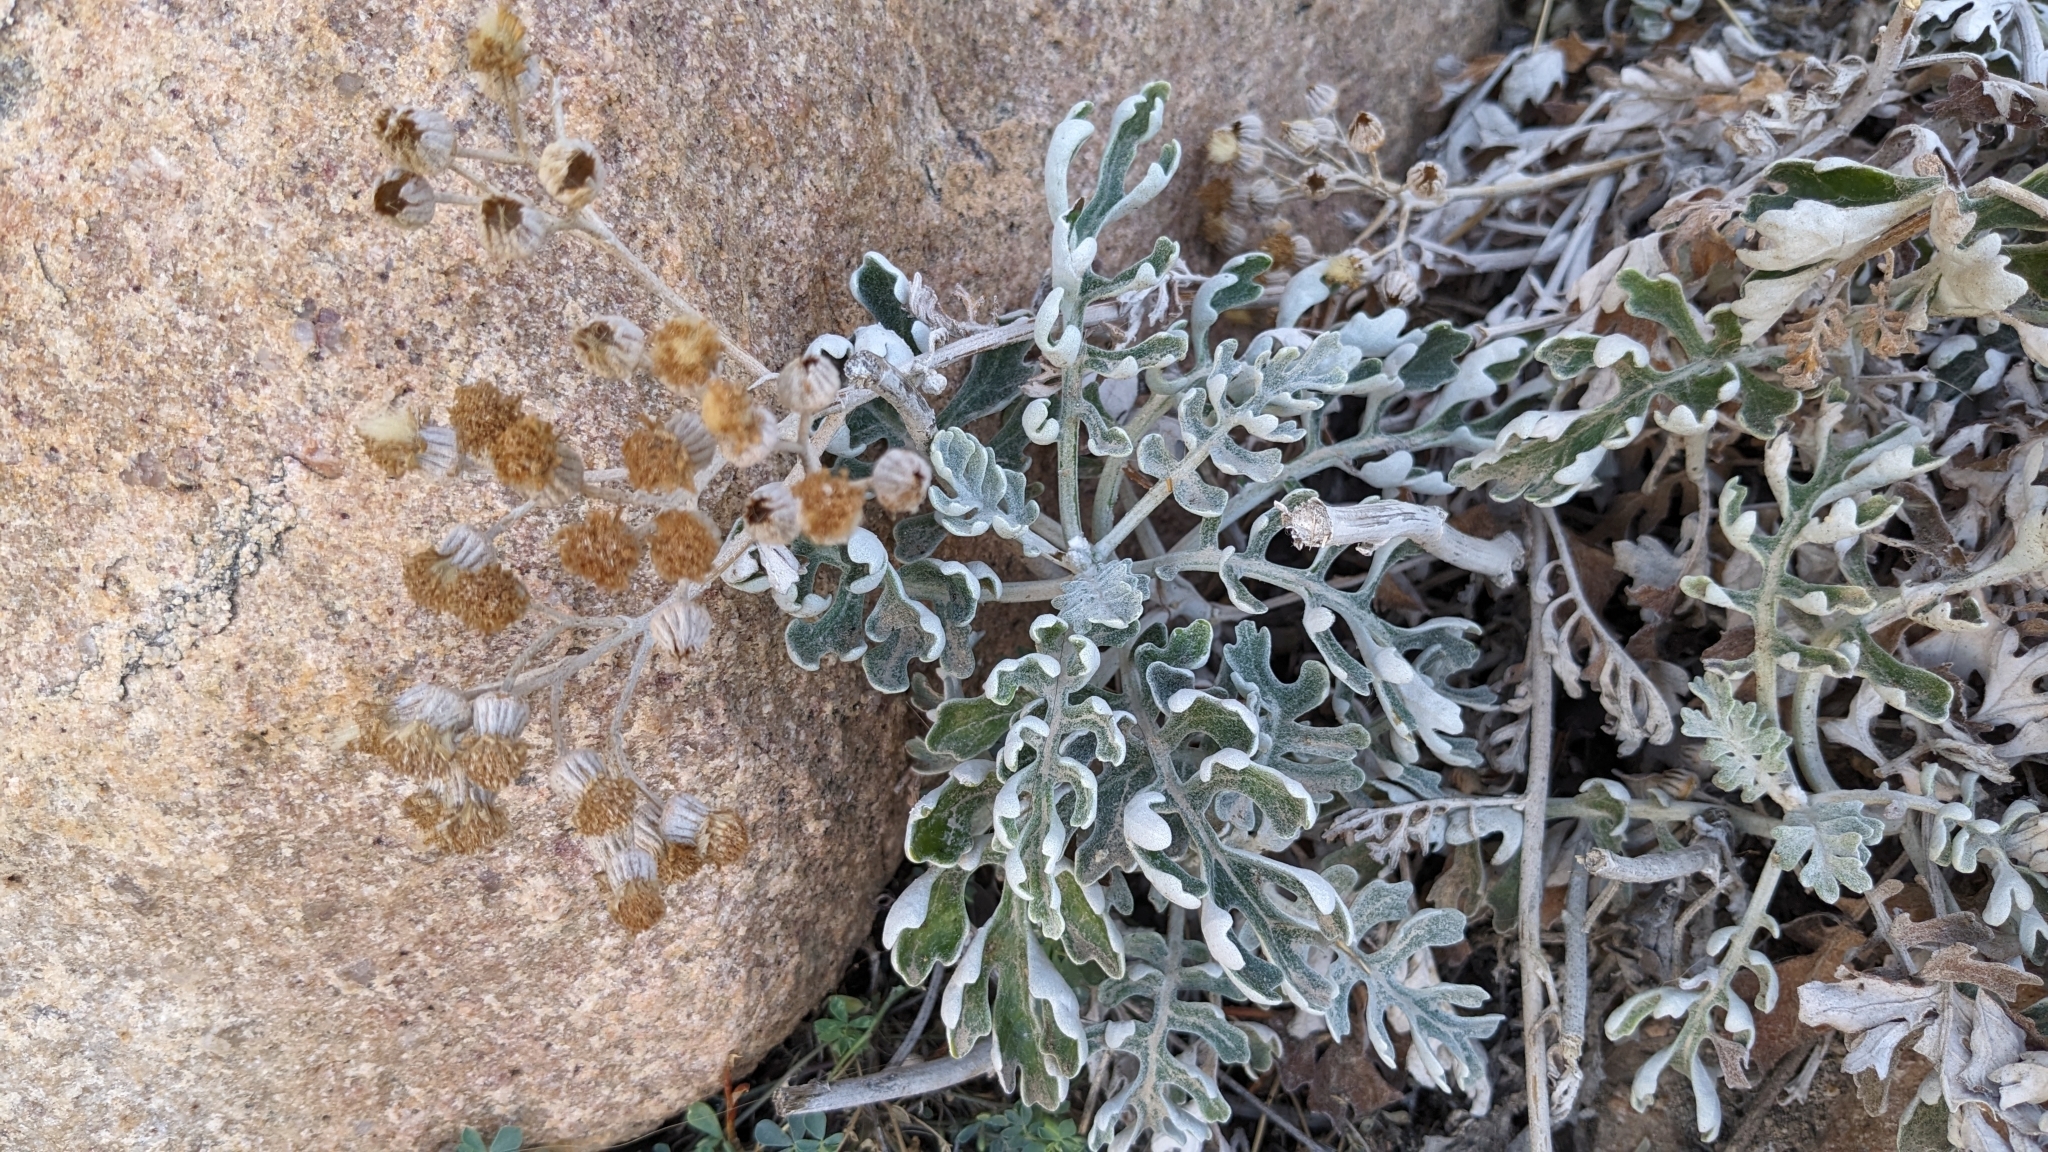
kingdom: Plantae
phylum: Tracheophyta
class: Magnoliopsida
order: Asterales
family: Asteraceae
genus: Jacobaea
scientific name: Jacobaea maritima
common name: Silver ragwort
